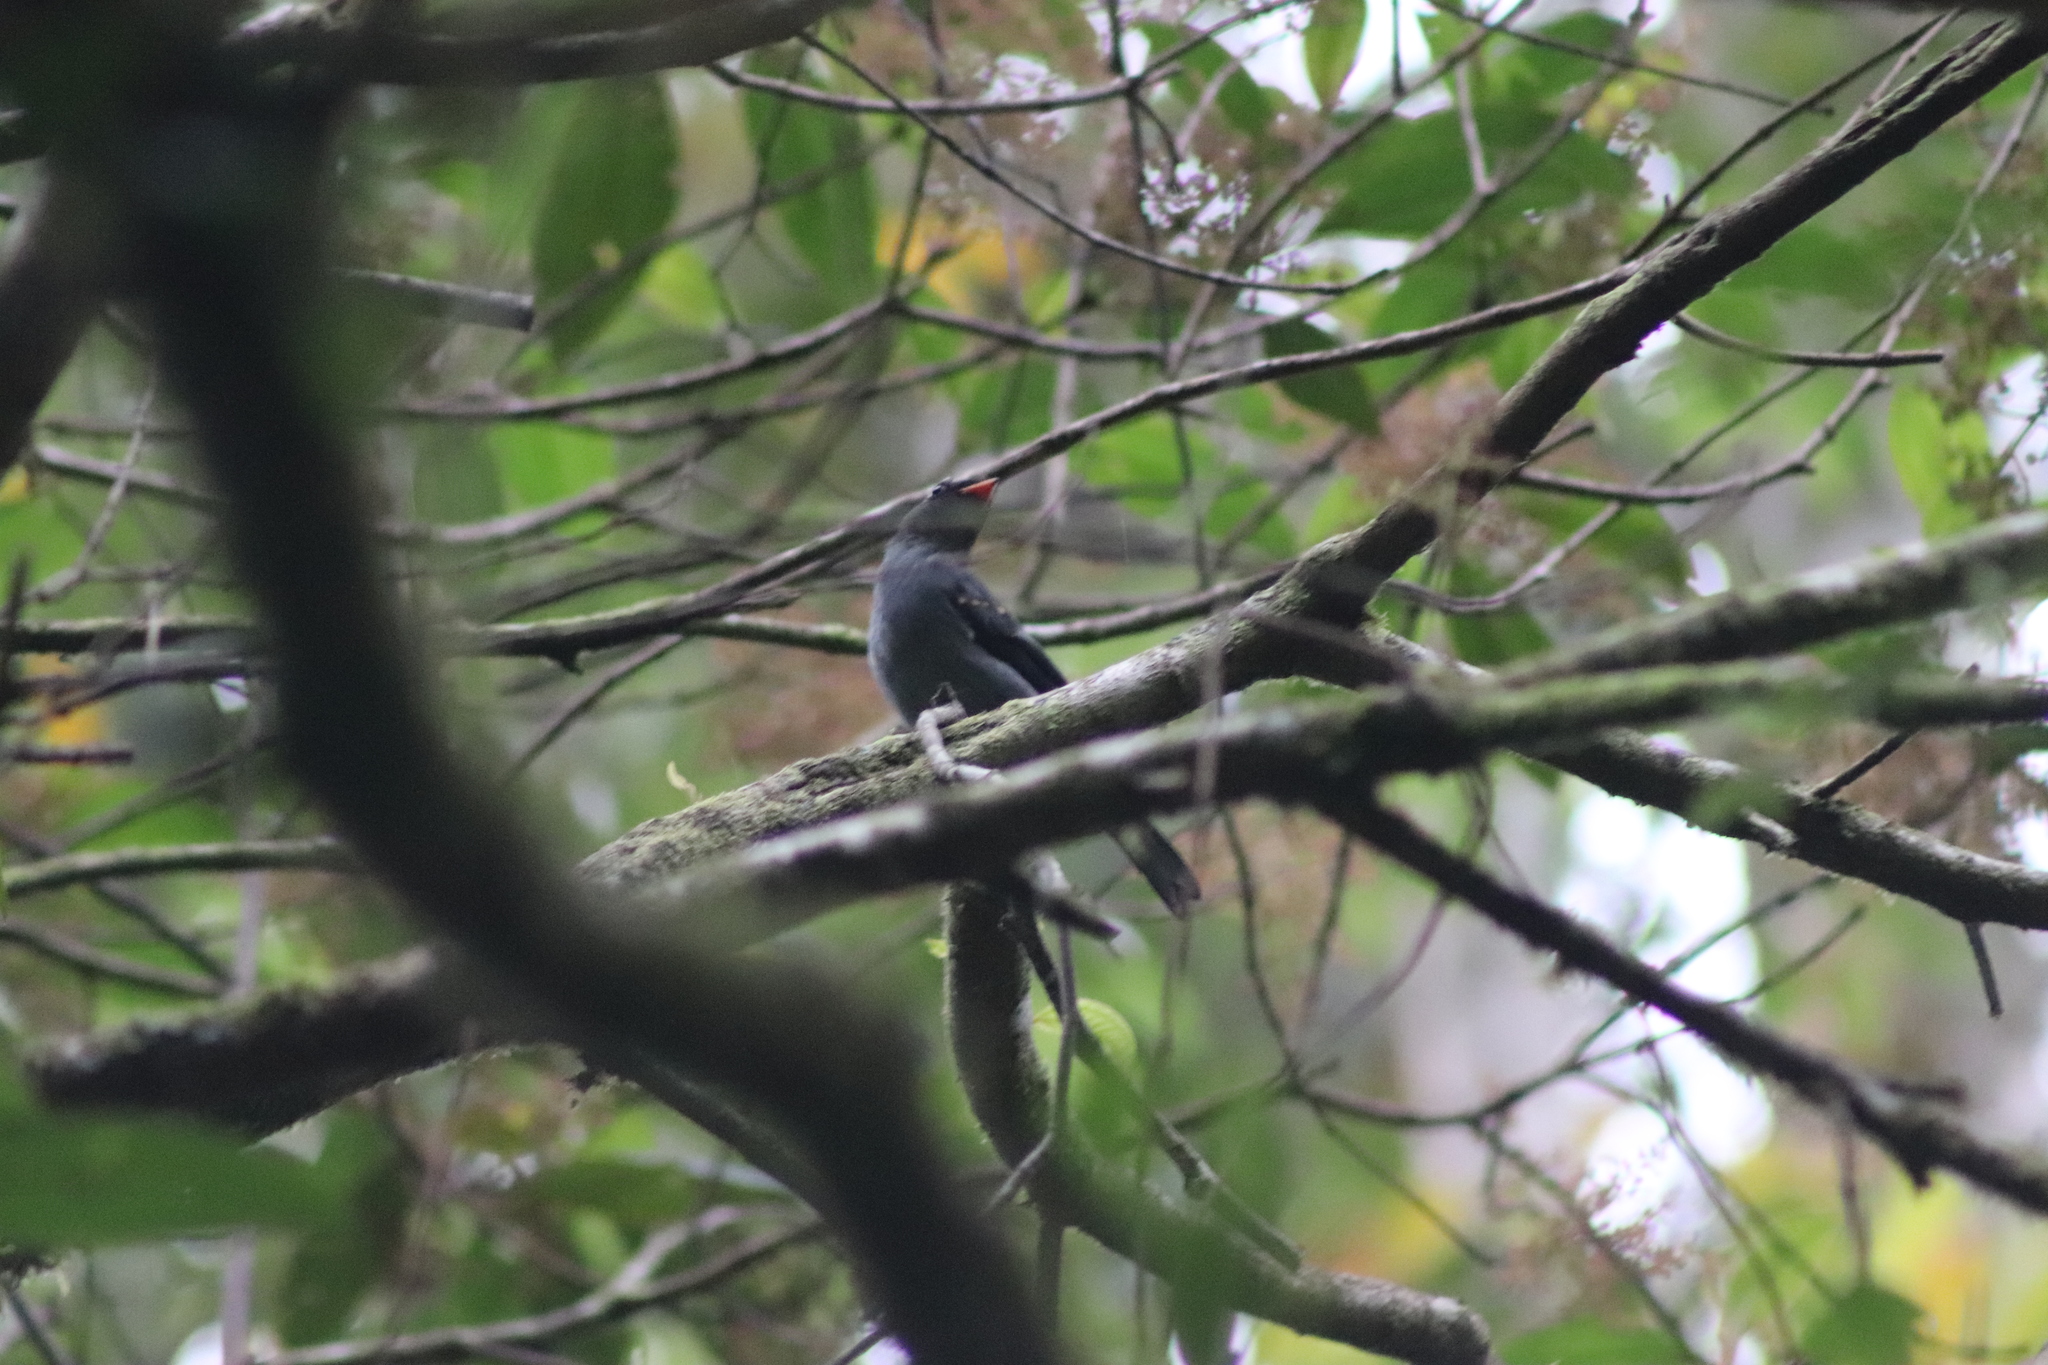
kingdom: Animalia
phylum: Chordata
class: Aves
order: Passeriformes
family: Turdidae
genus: Myadestes
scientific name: Myadestes melanops
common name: Black-faced solitaire
